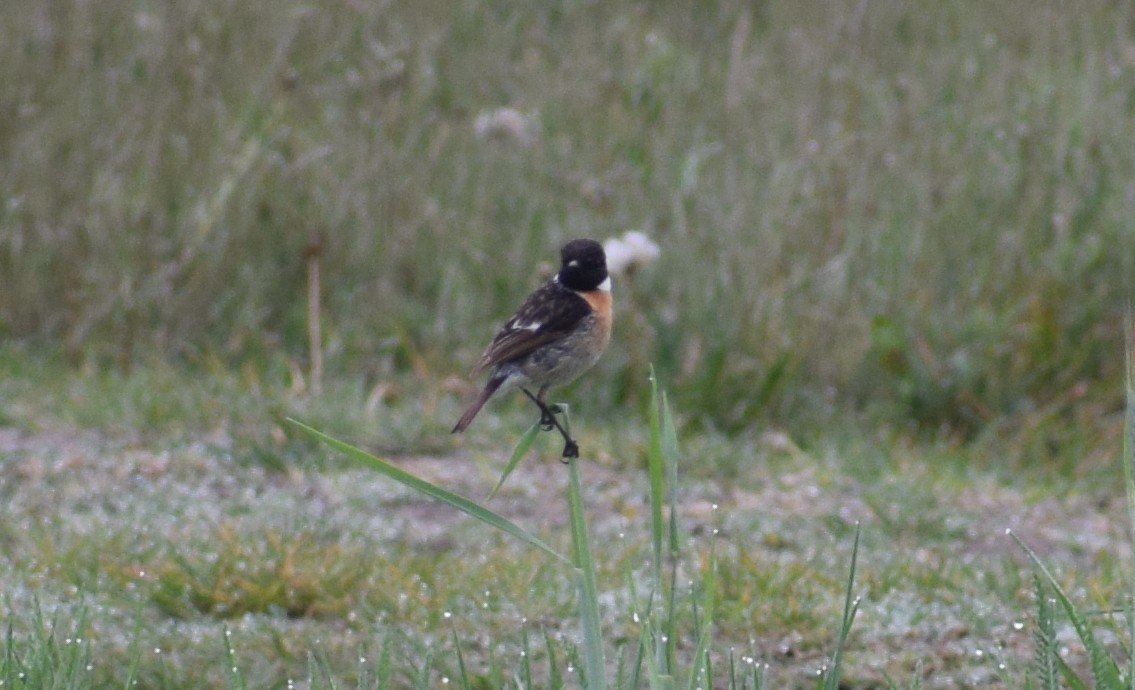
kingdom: Animalia
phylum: Chordata
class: Aves
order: Passeriformes
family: Muscicapidae
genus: Saxicola
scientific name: Saxicola rubicola
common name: European stonechat
